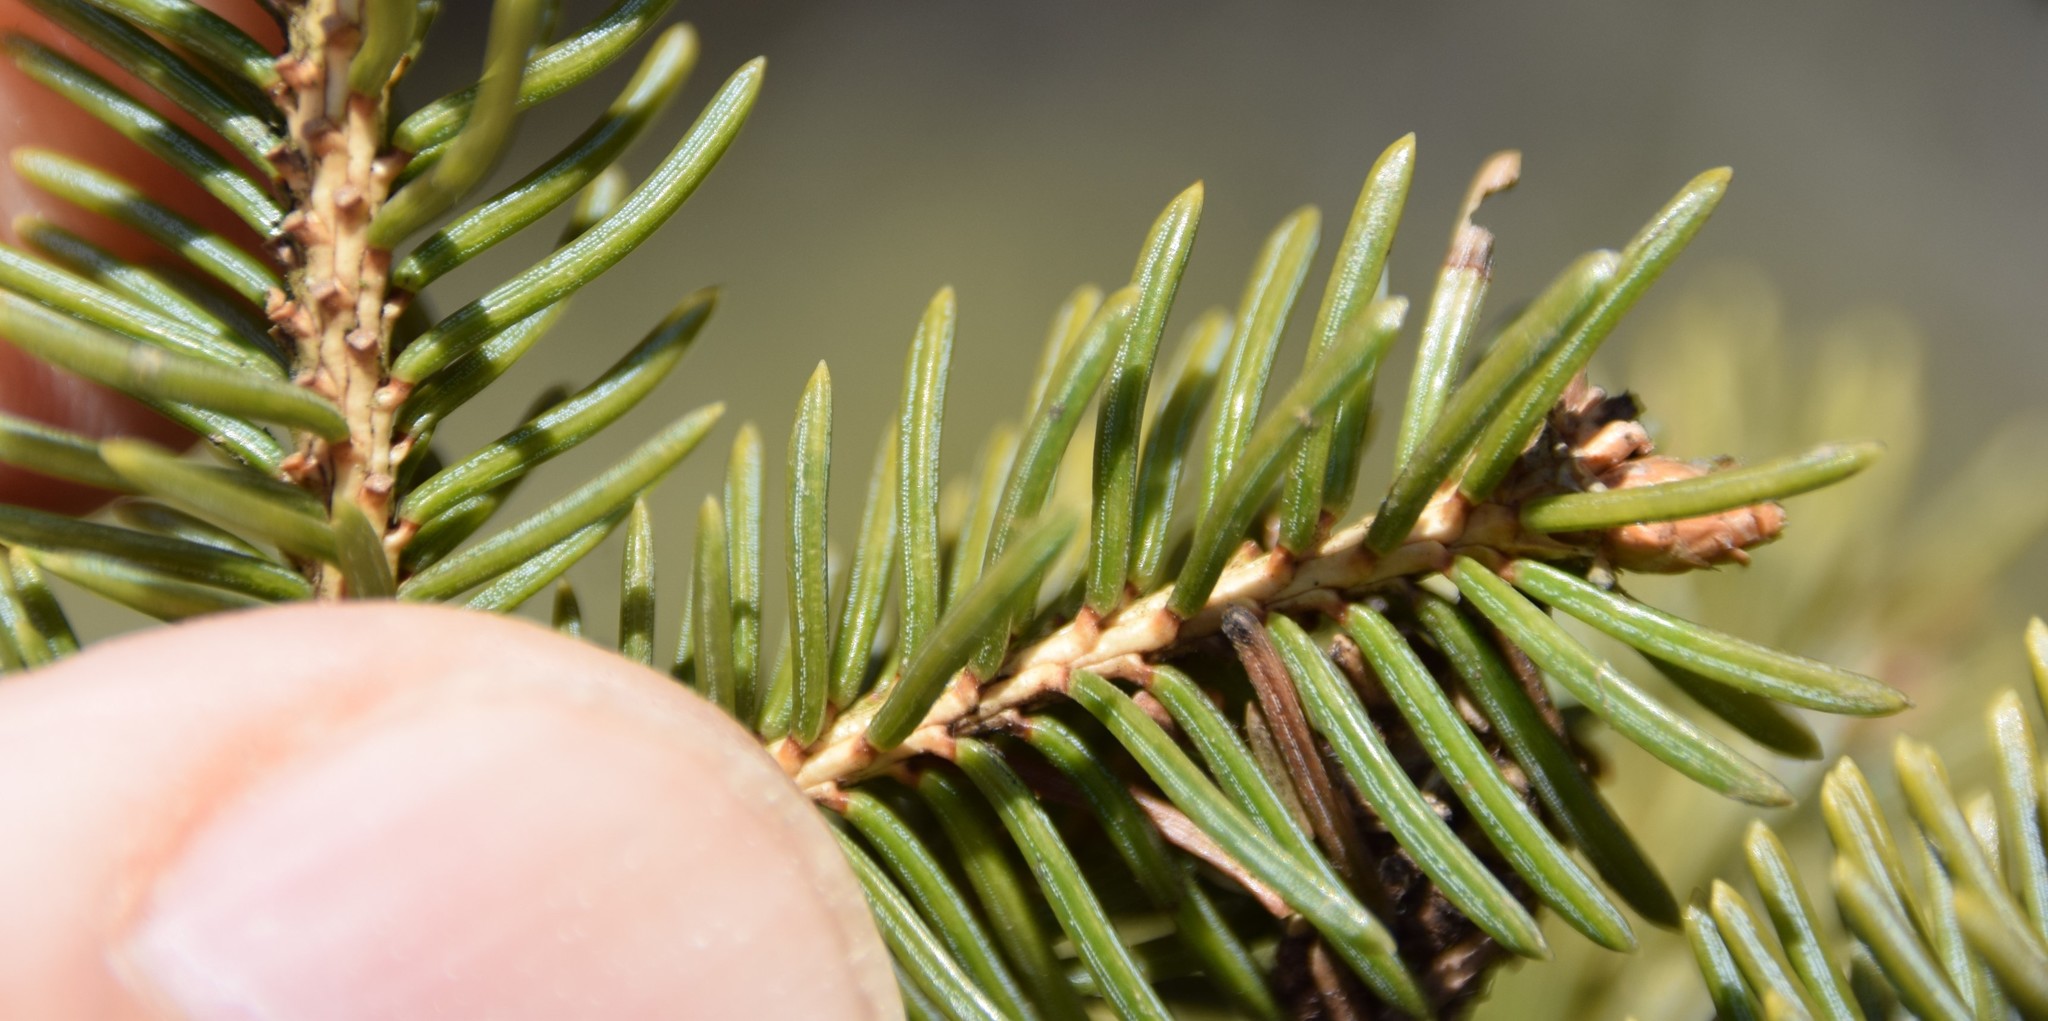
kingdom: Plantae
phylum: Tracheophyta
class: Pinopsida
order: Pinales
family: Pinaceae
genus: Picea
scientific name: Picea glauca
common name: White spruce
